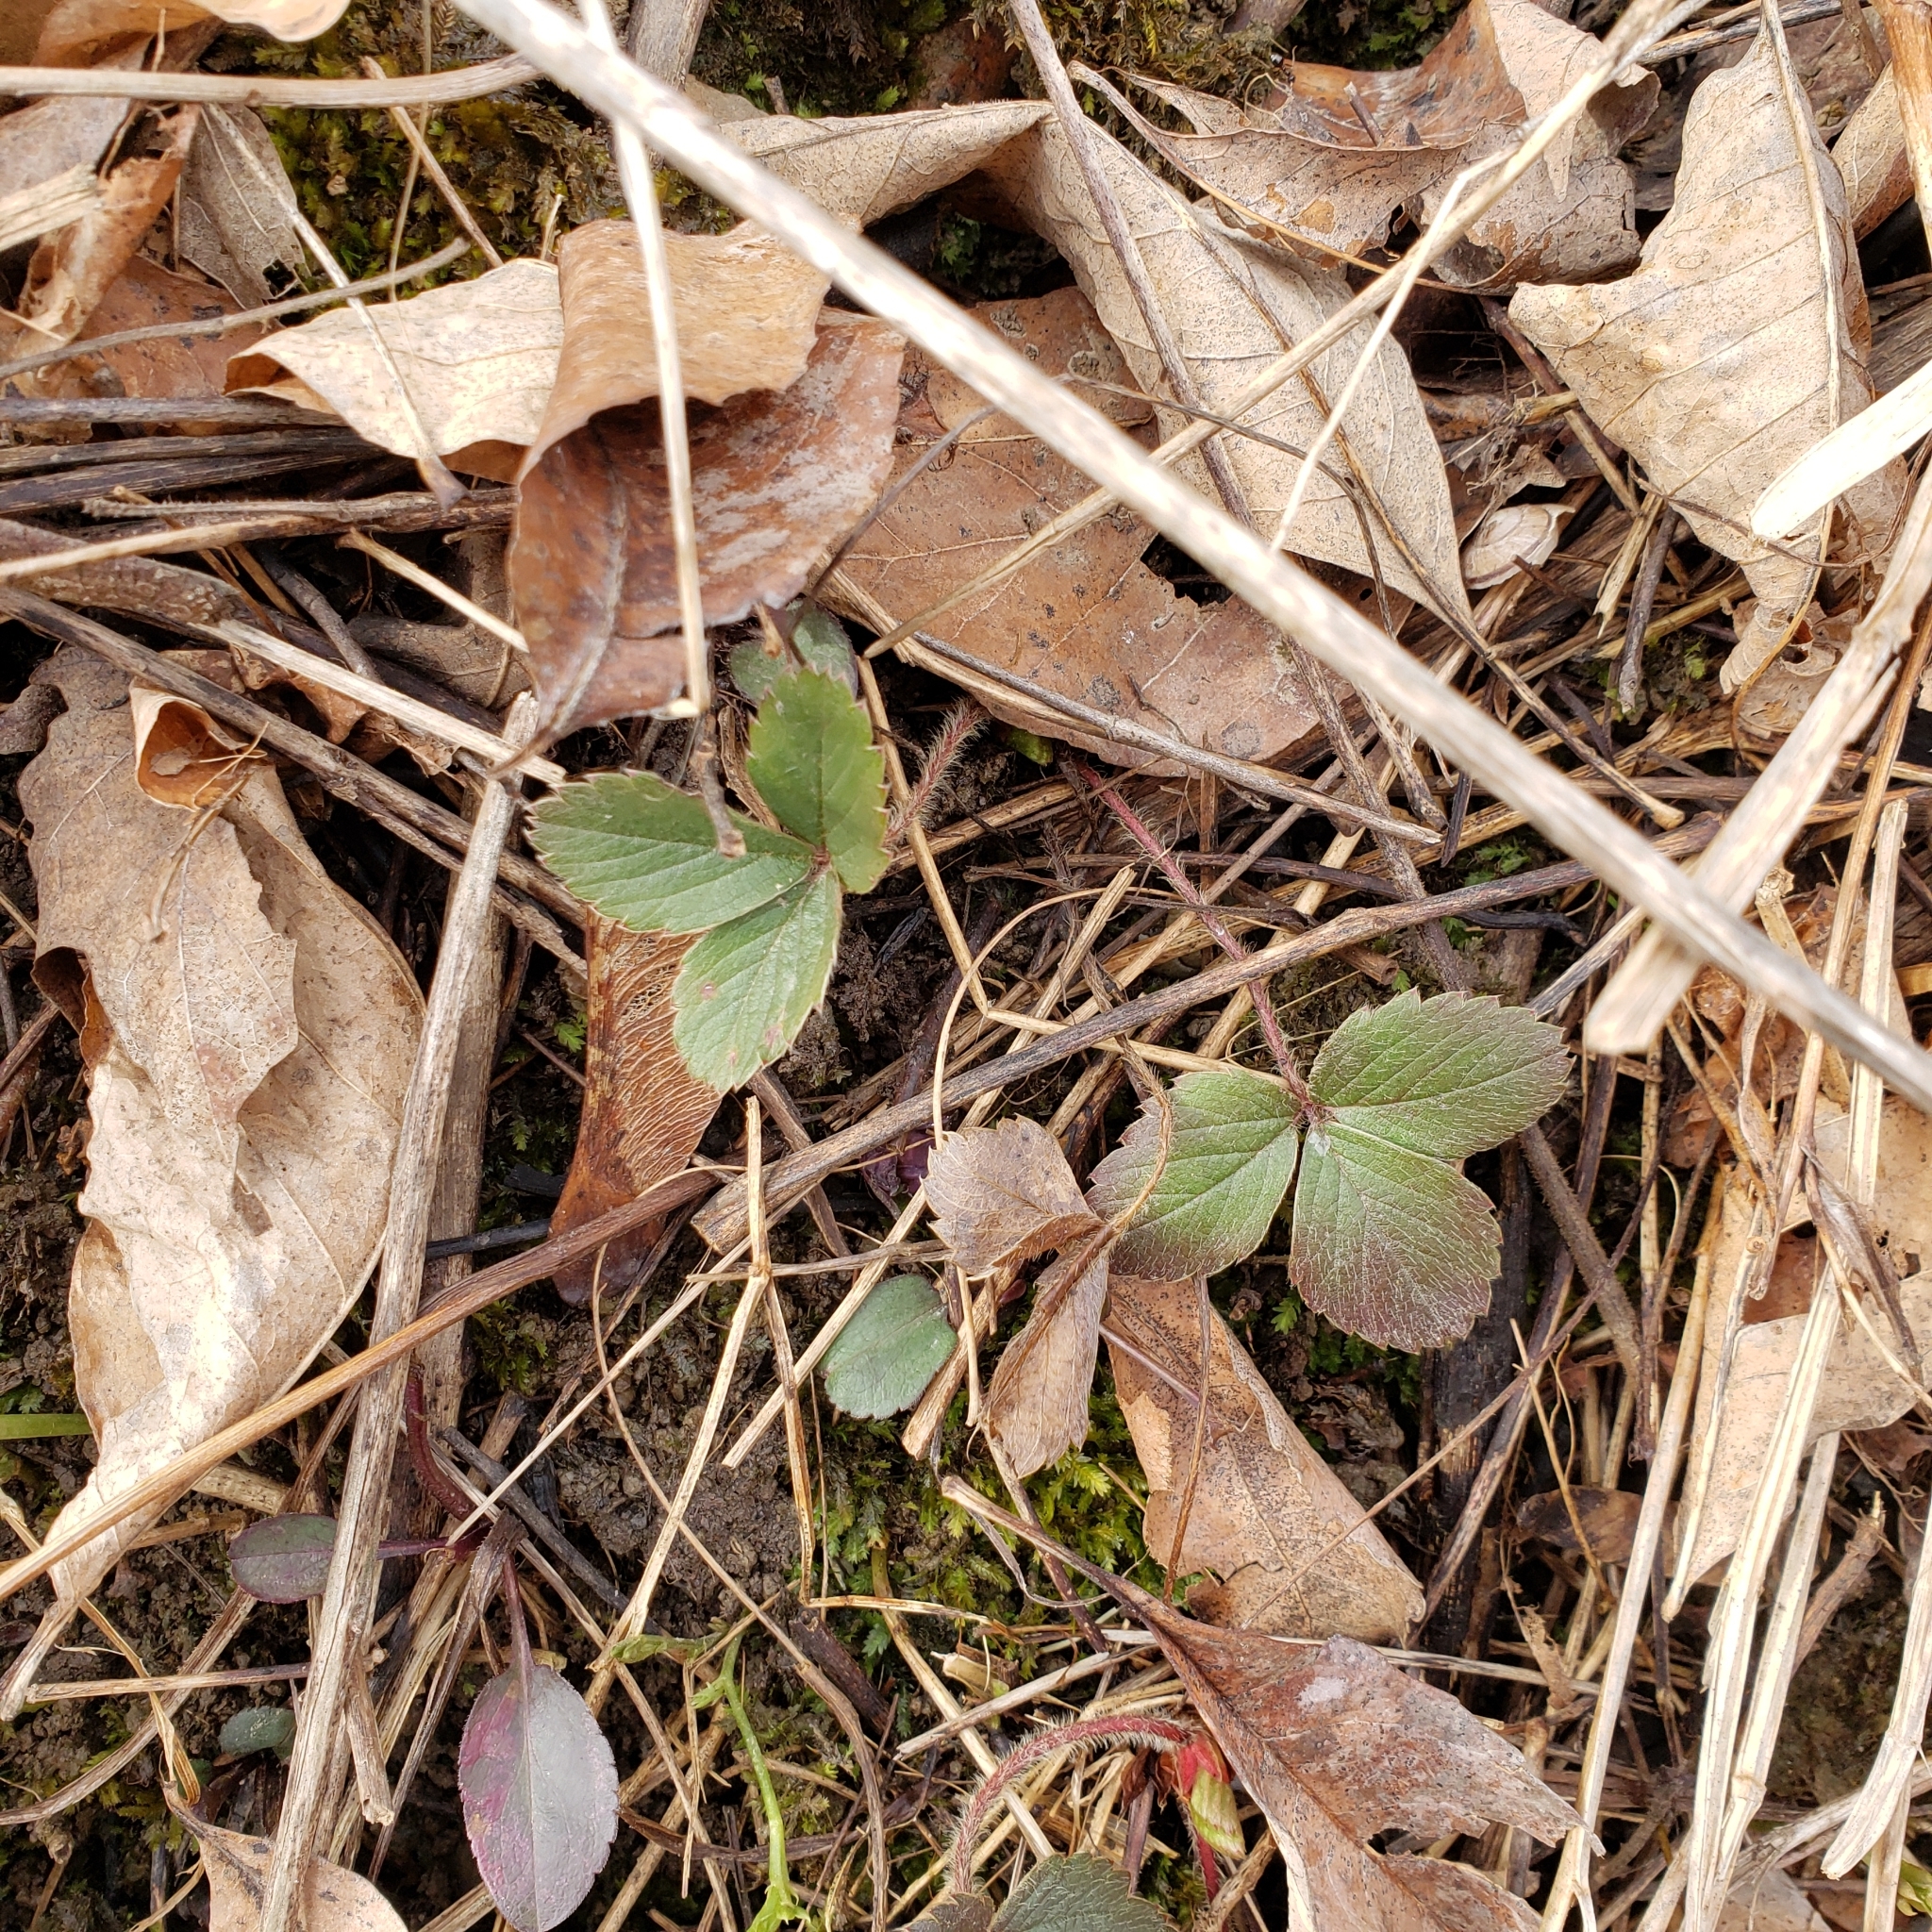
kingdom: Plantae
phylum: Tracheophyta
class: Magnoliopsida
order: Rosales
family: Rosaceae
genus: Fragaria
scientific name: Fragaria virginiana
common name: Thickleaved wild strawberry
